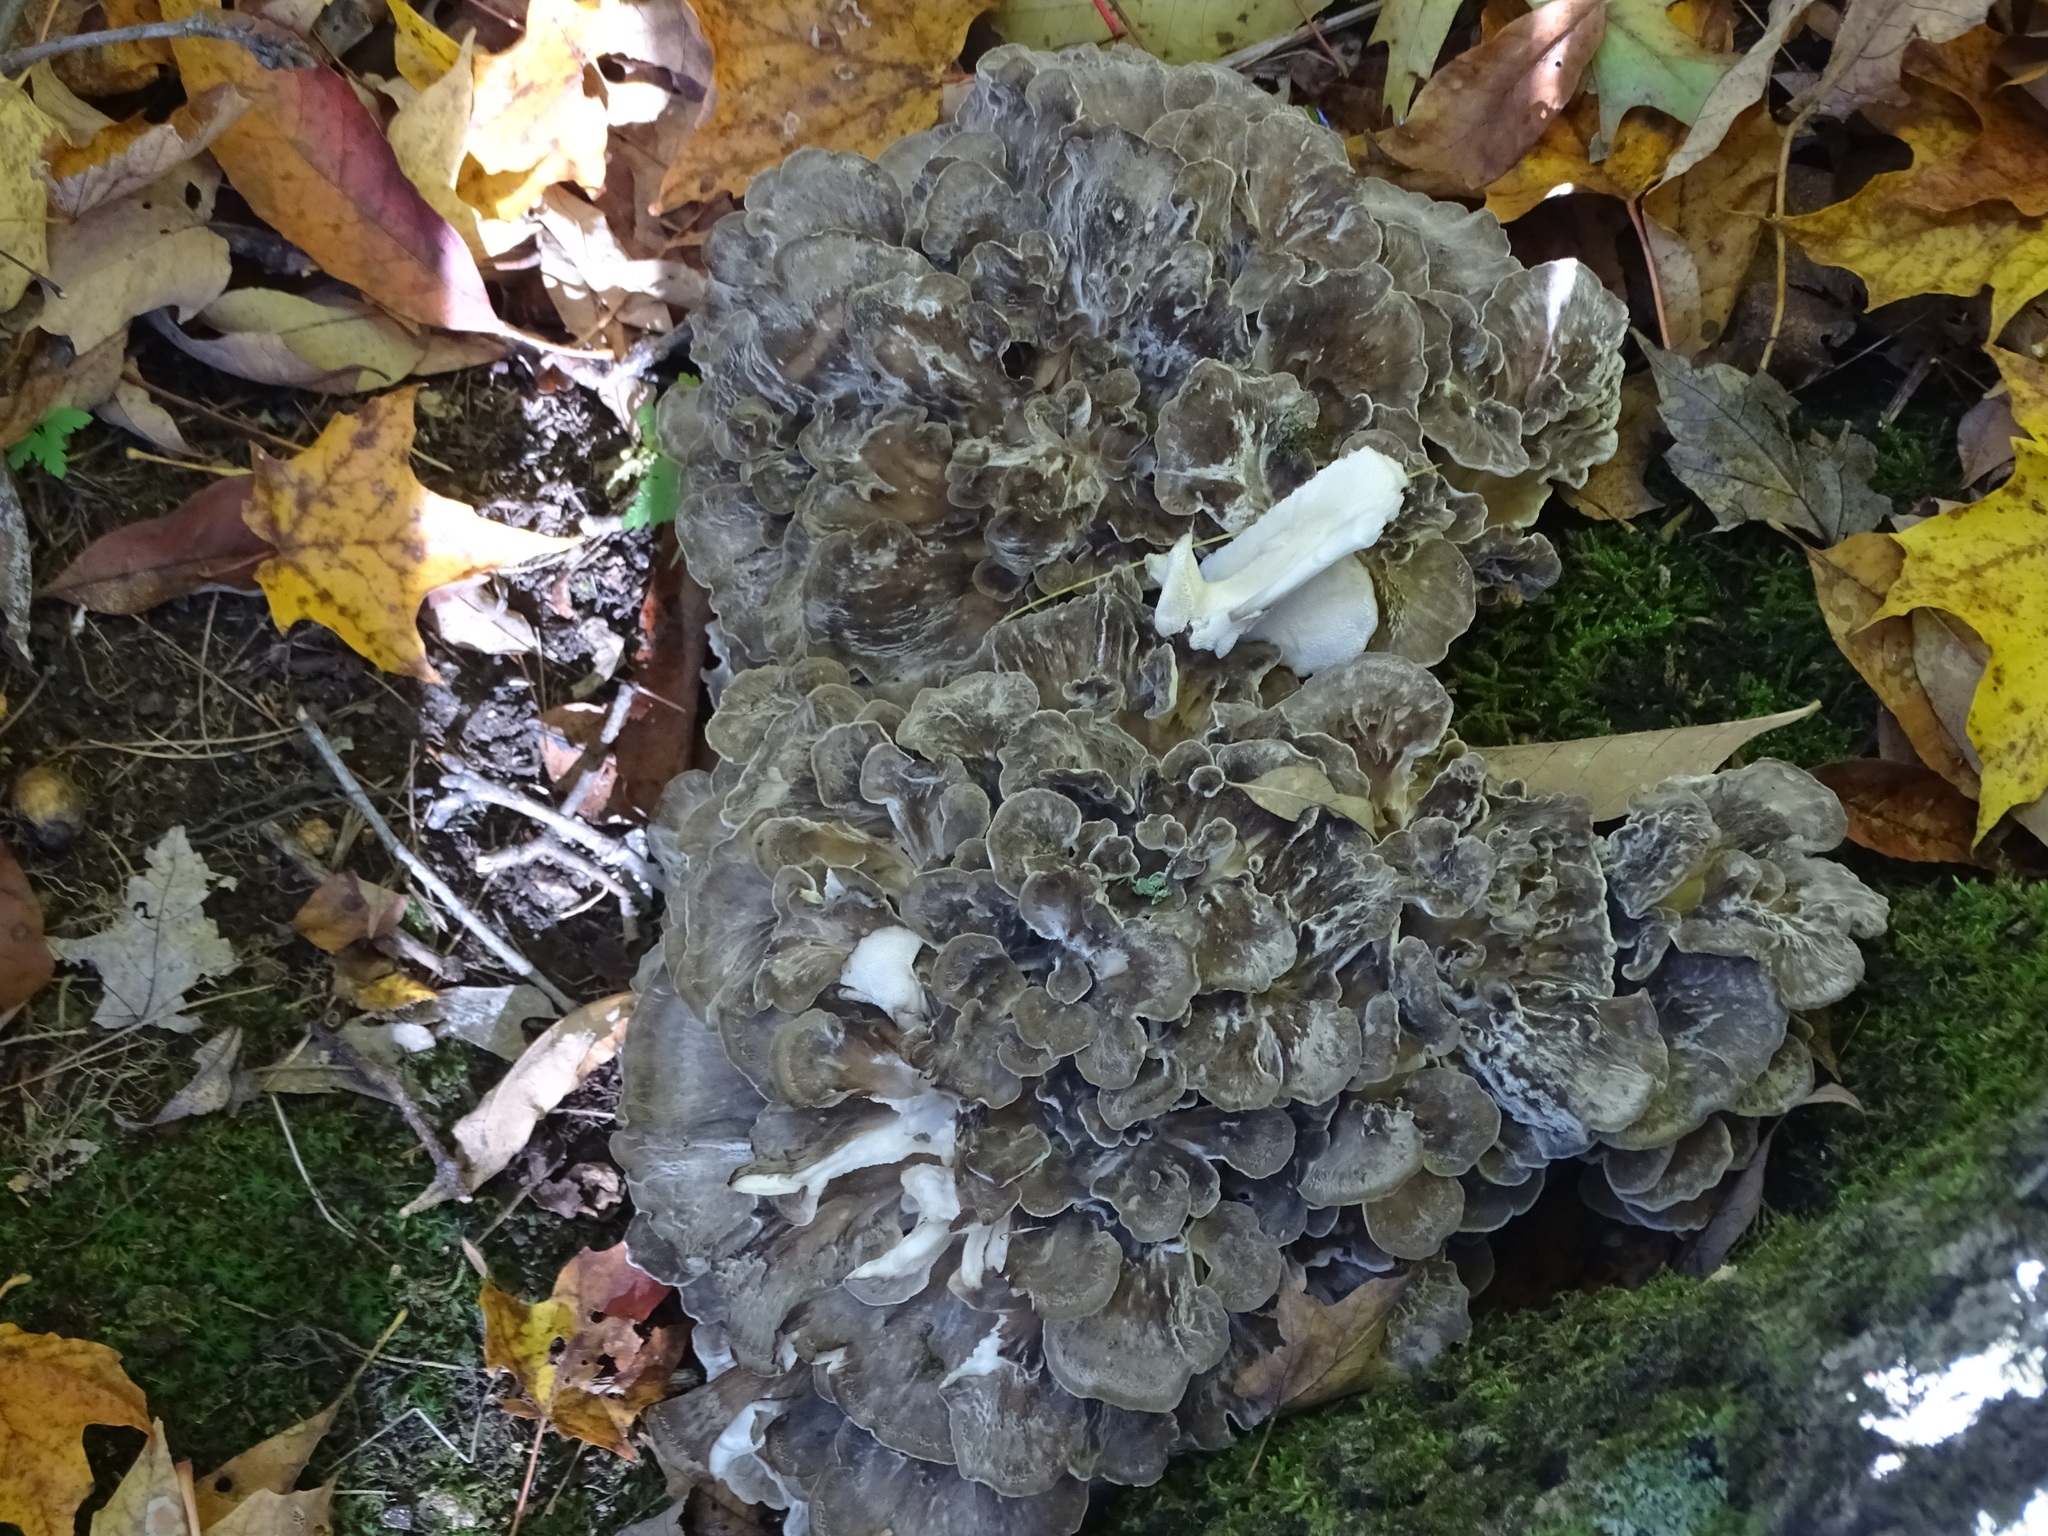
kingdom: Fungi
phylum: Basidiomycota
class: Agaricomycetes
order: Polyporales
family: Grifolaceae
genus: Grifola
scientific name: Grifola frondosa
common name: Hen of the woods
